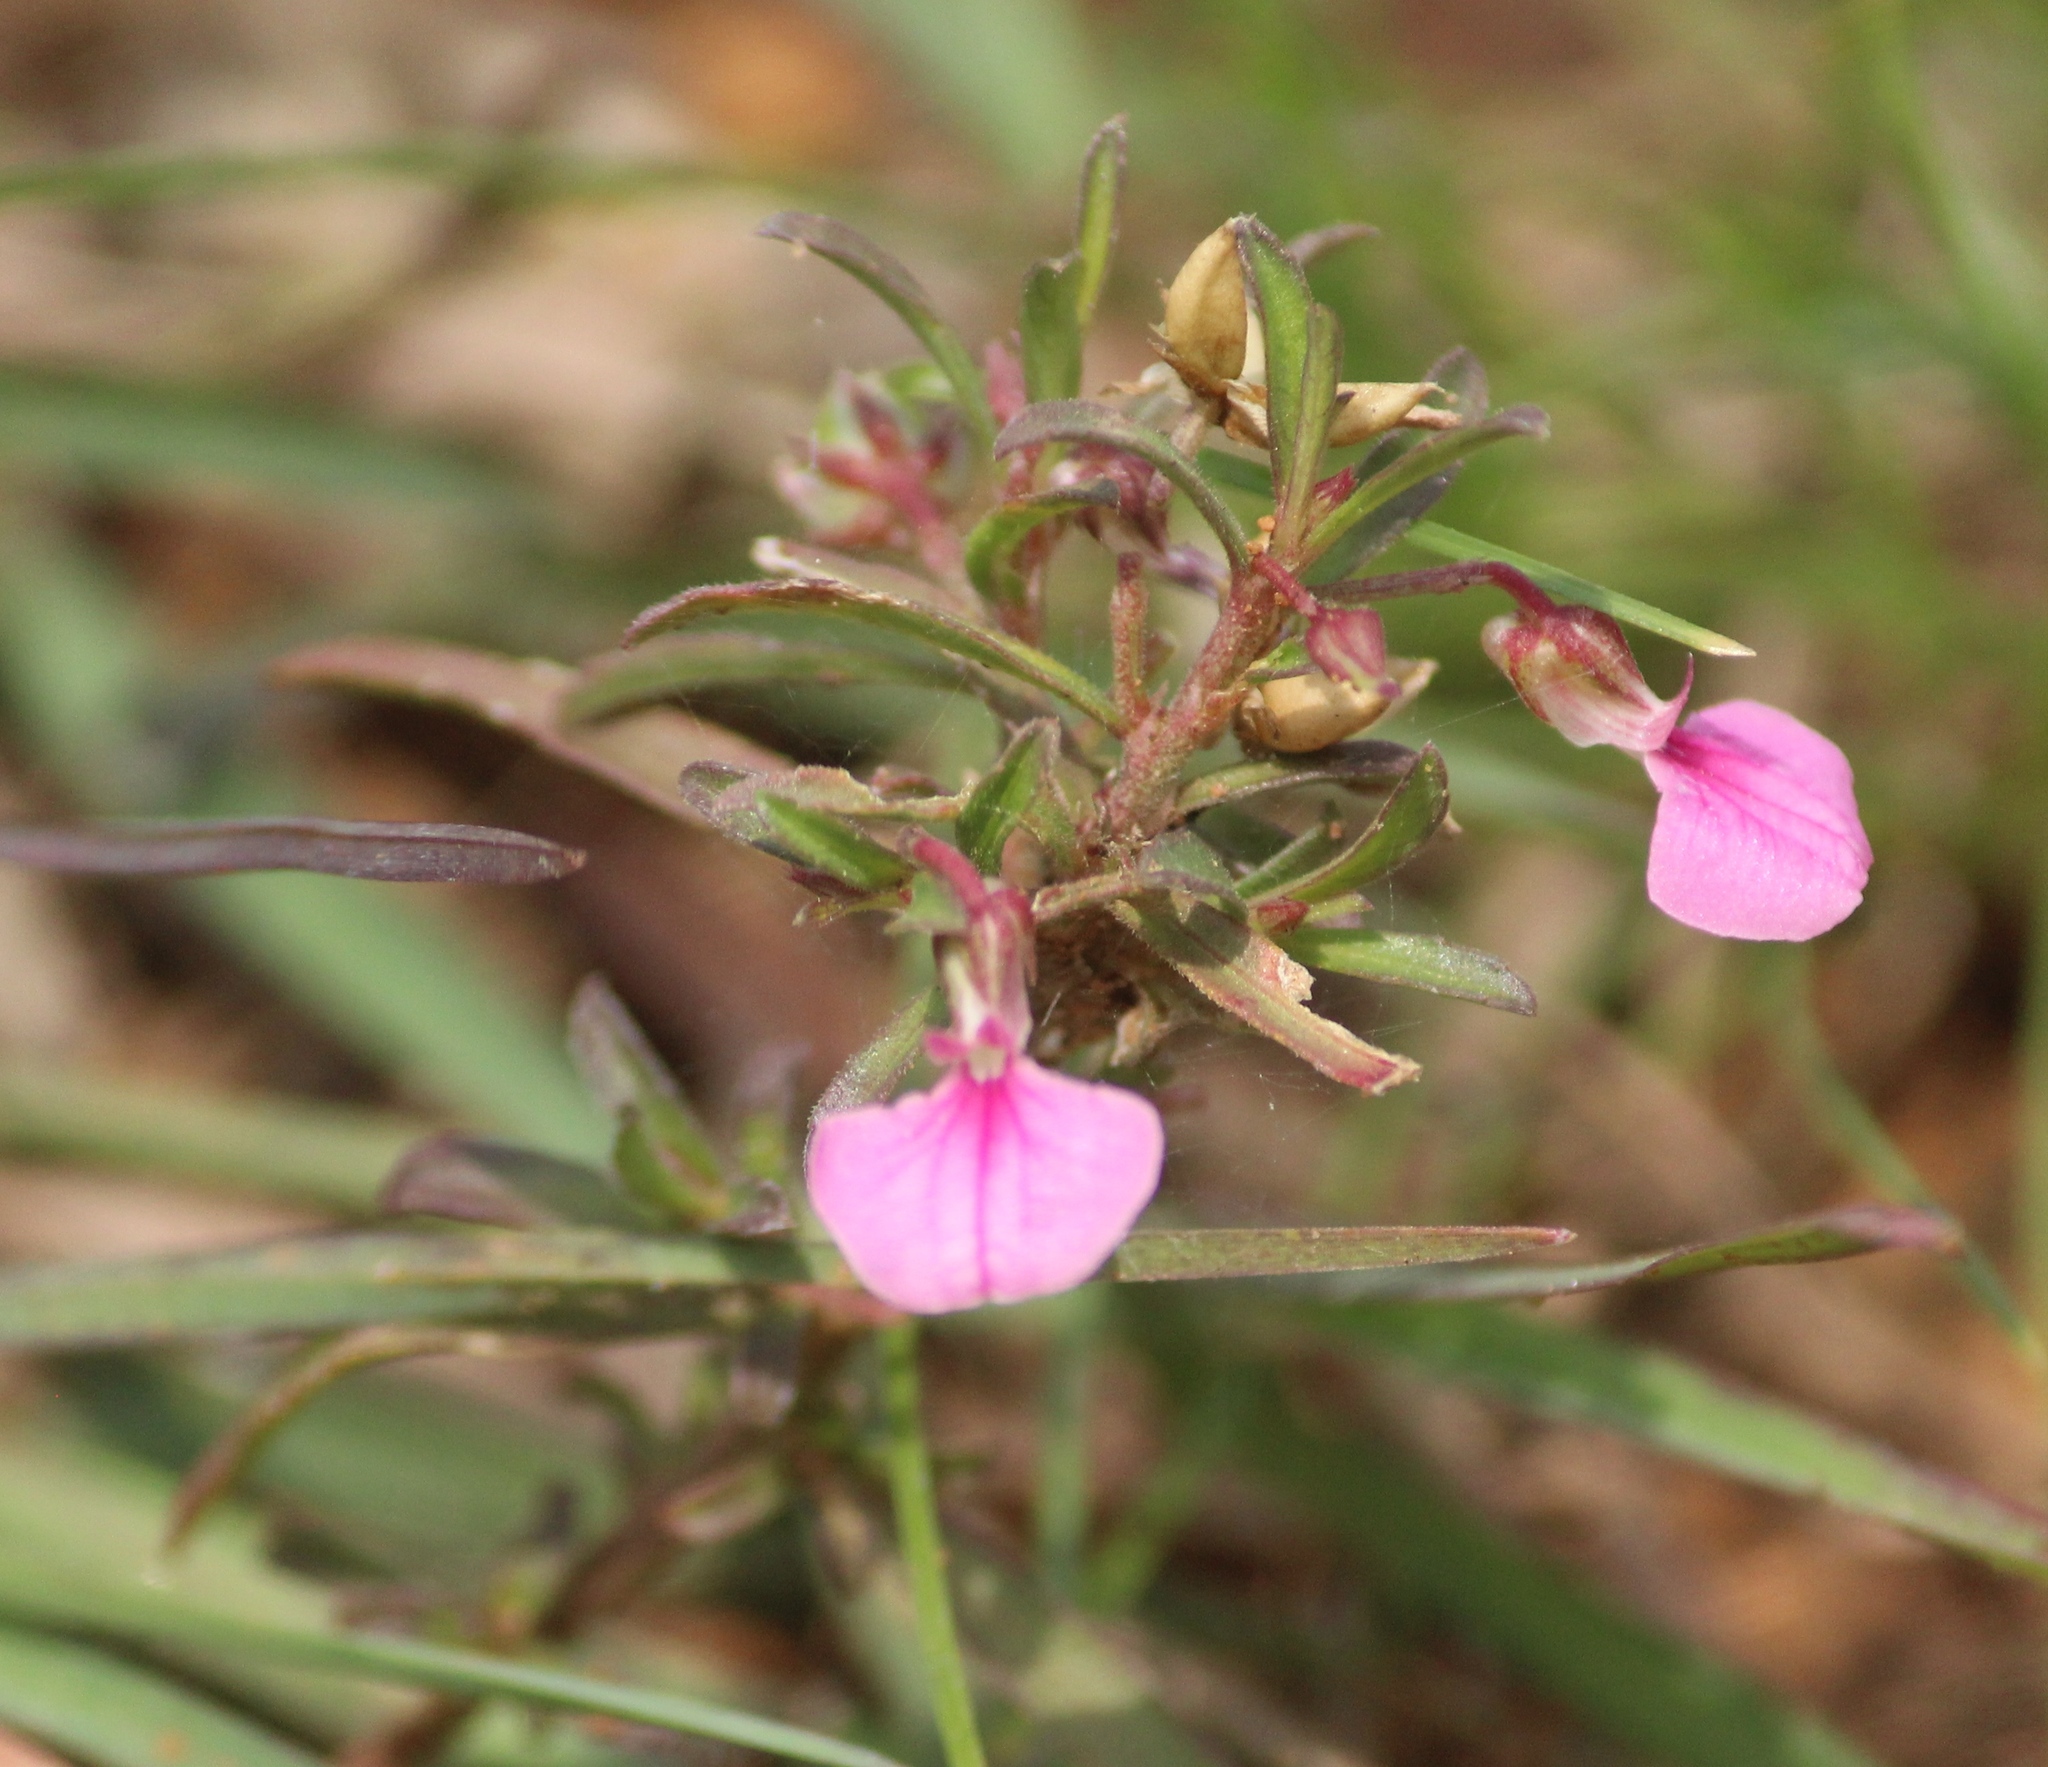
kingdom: Plantae
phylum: Tracheophyta
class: Magnoliopsida
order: Malpighiales
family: Violaceae
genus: Pigea
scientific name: Pigea enneasperma
